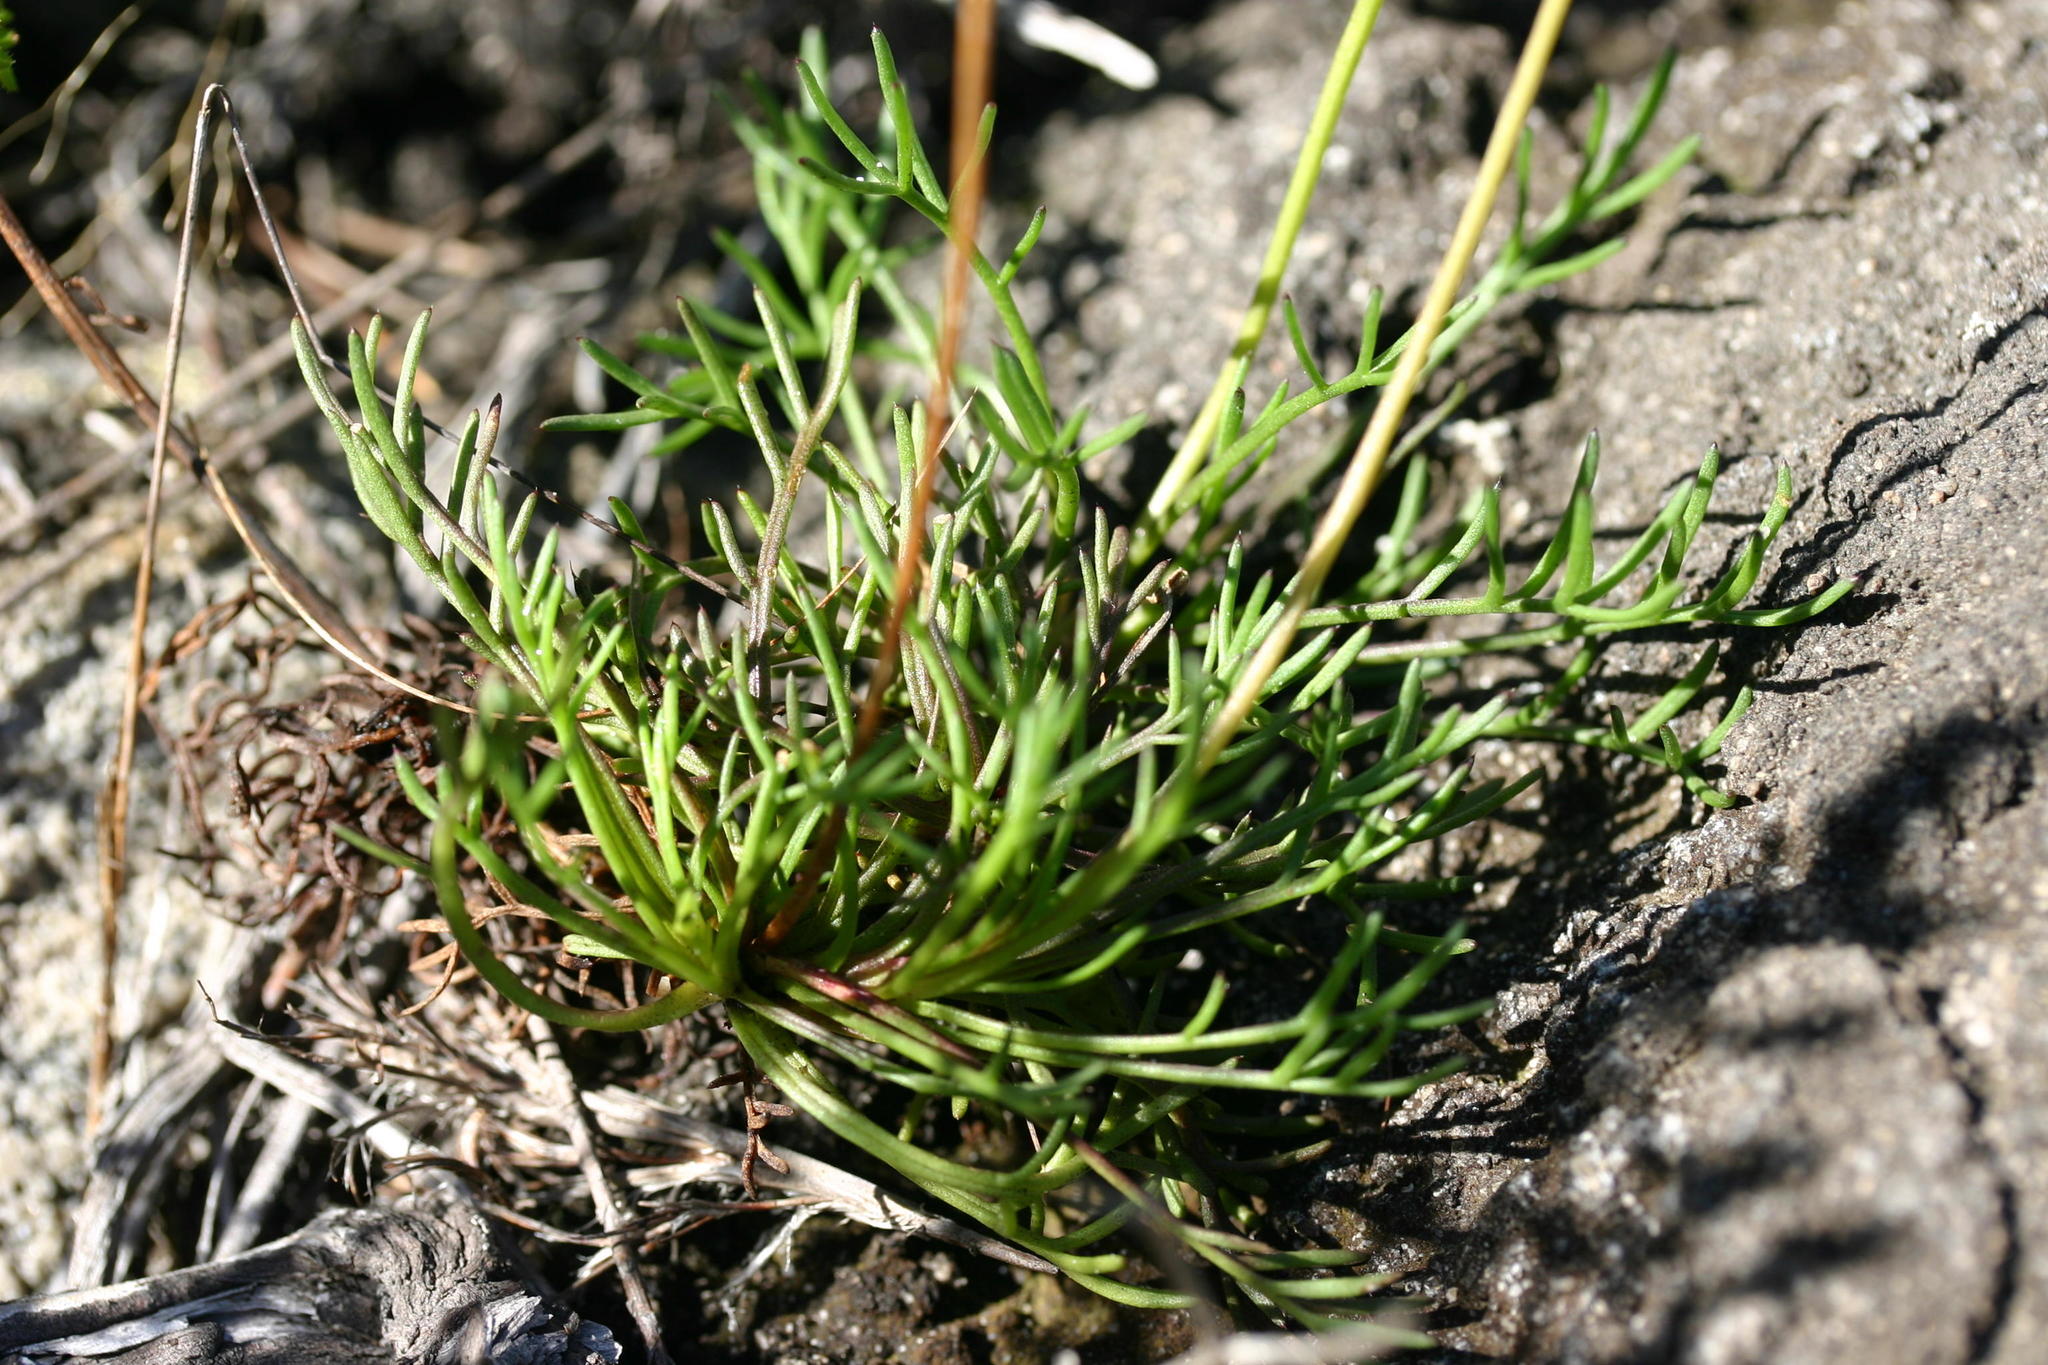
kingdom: Plantae
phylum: Tracheophyta
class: Magnoliopsida
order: Asterales
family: Asteraceae
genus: Ursinia
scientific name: Ursinia paleacea
